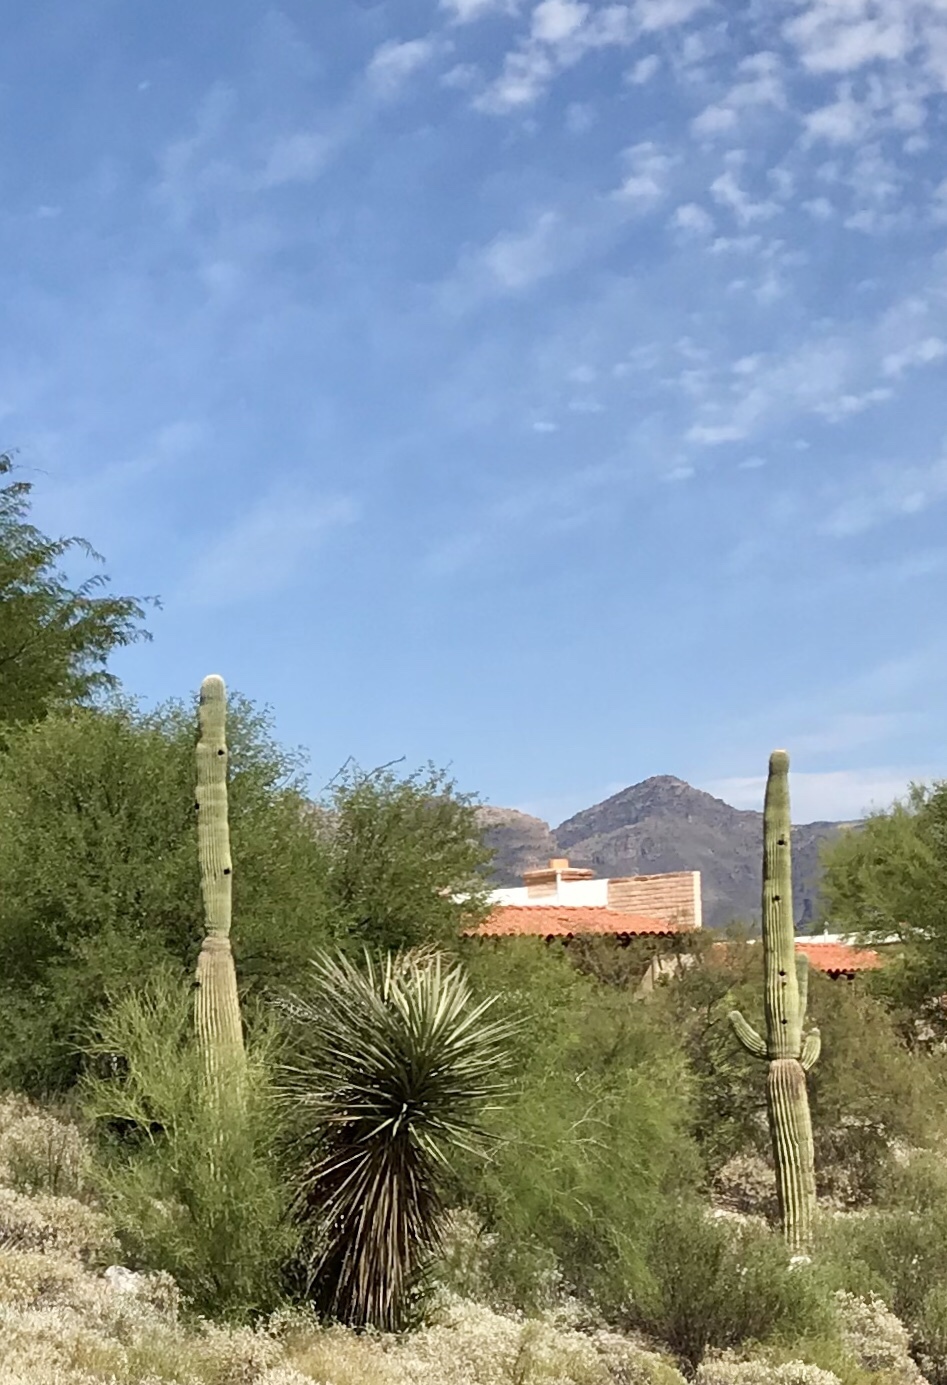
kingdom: Plantae
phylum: Tracheophyta
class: Magnoliopsida
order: Caryophyllales
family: Cactaceae
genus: Carnegiea
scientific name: Carnegiea gigantea
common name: Saguaro
